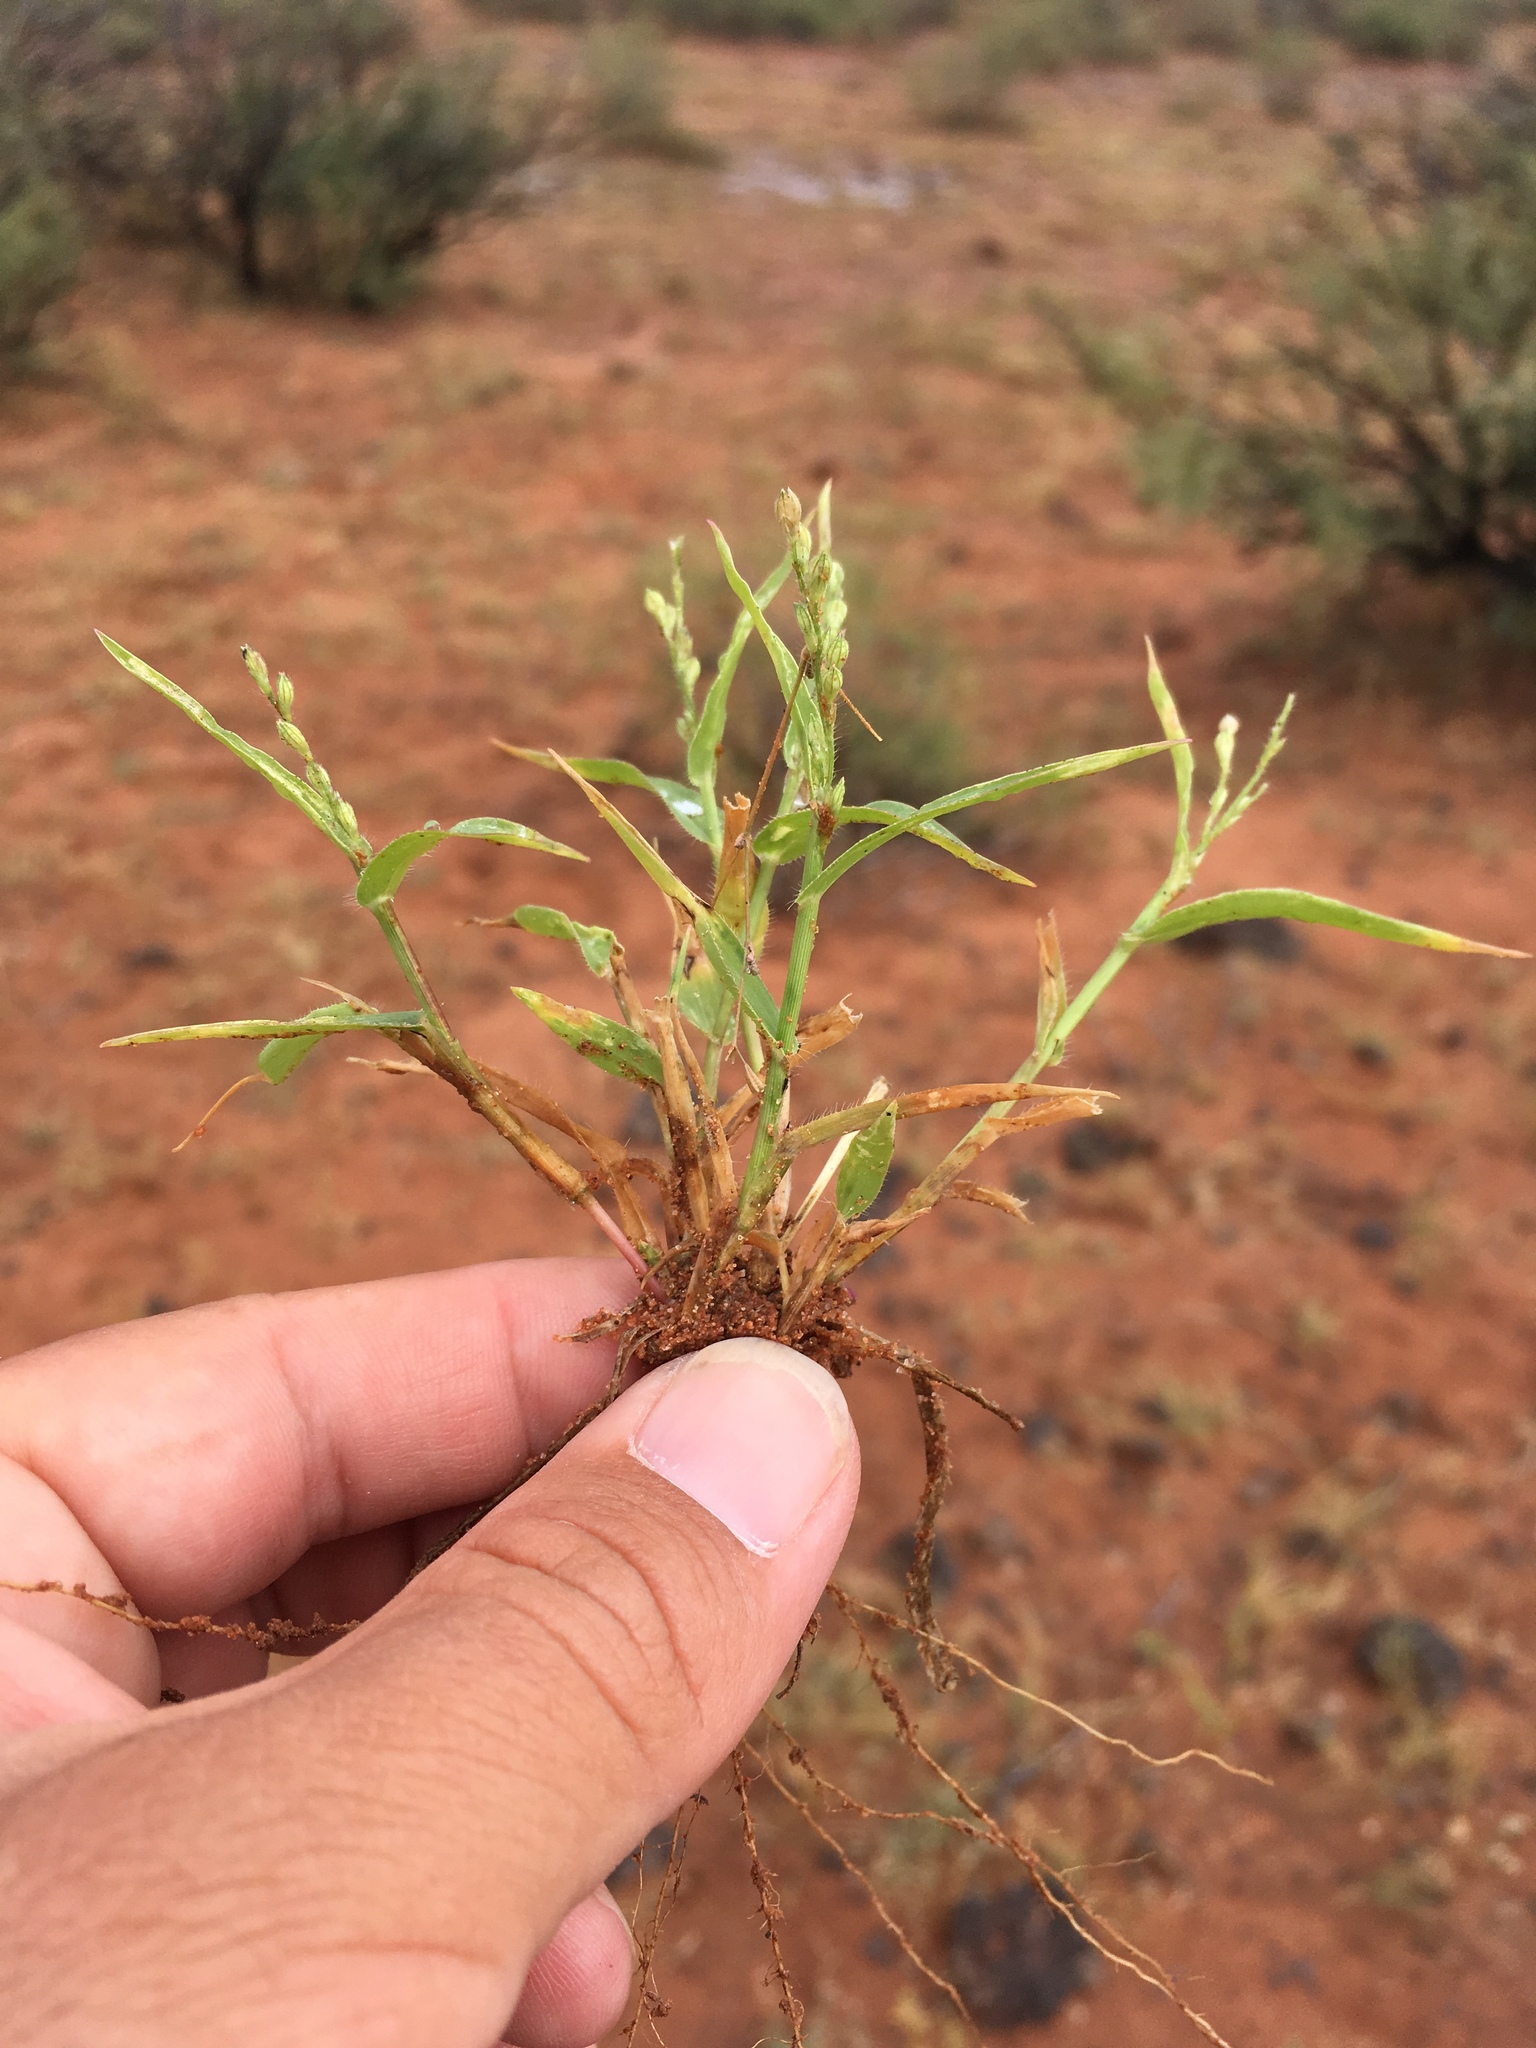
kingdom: Plantae
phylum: Tracheophyta
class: Liliopsida
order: Poales
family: Poaceae
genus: Urochloa
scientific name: Urochloa arizonica
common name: Arizona signal grass
